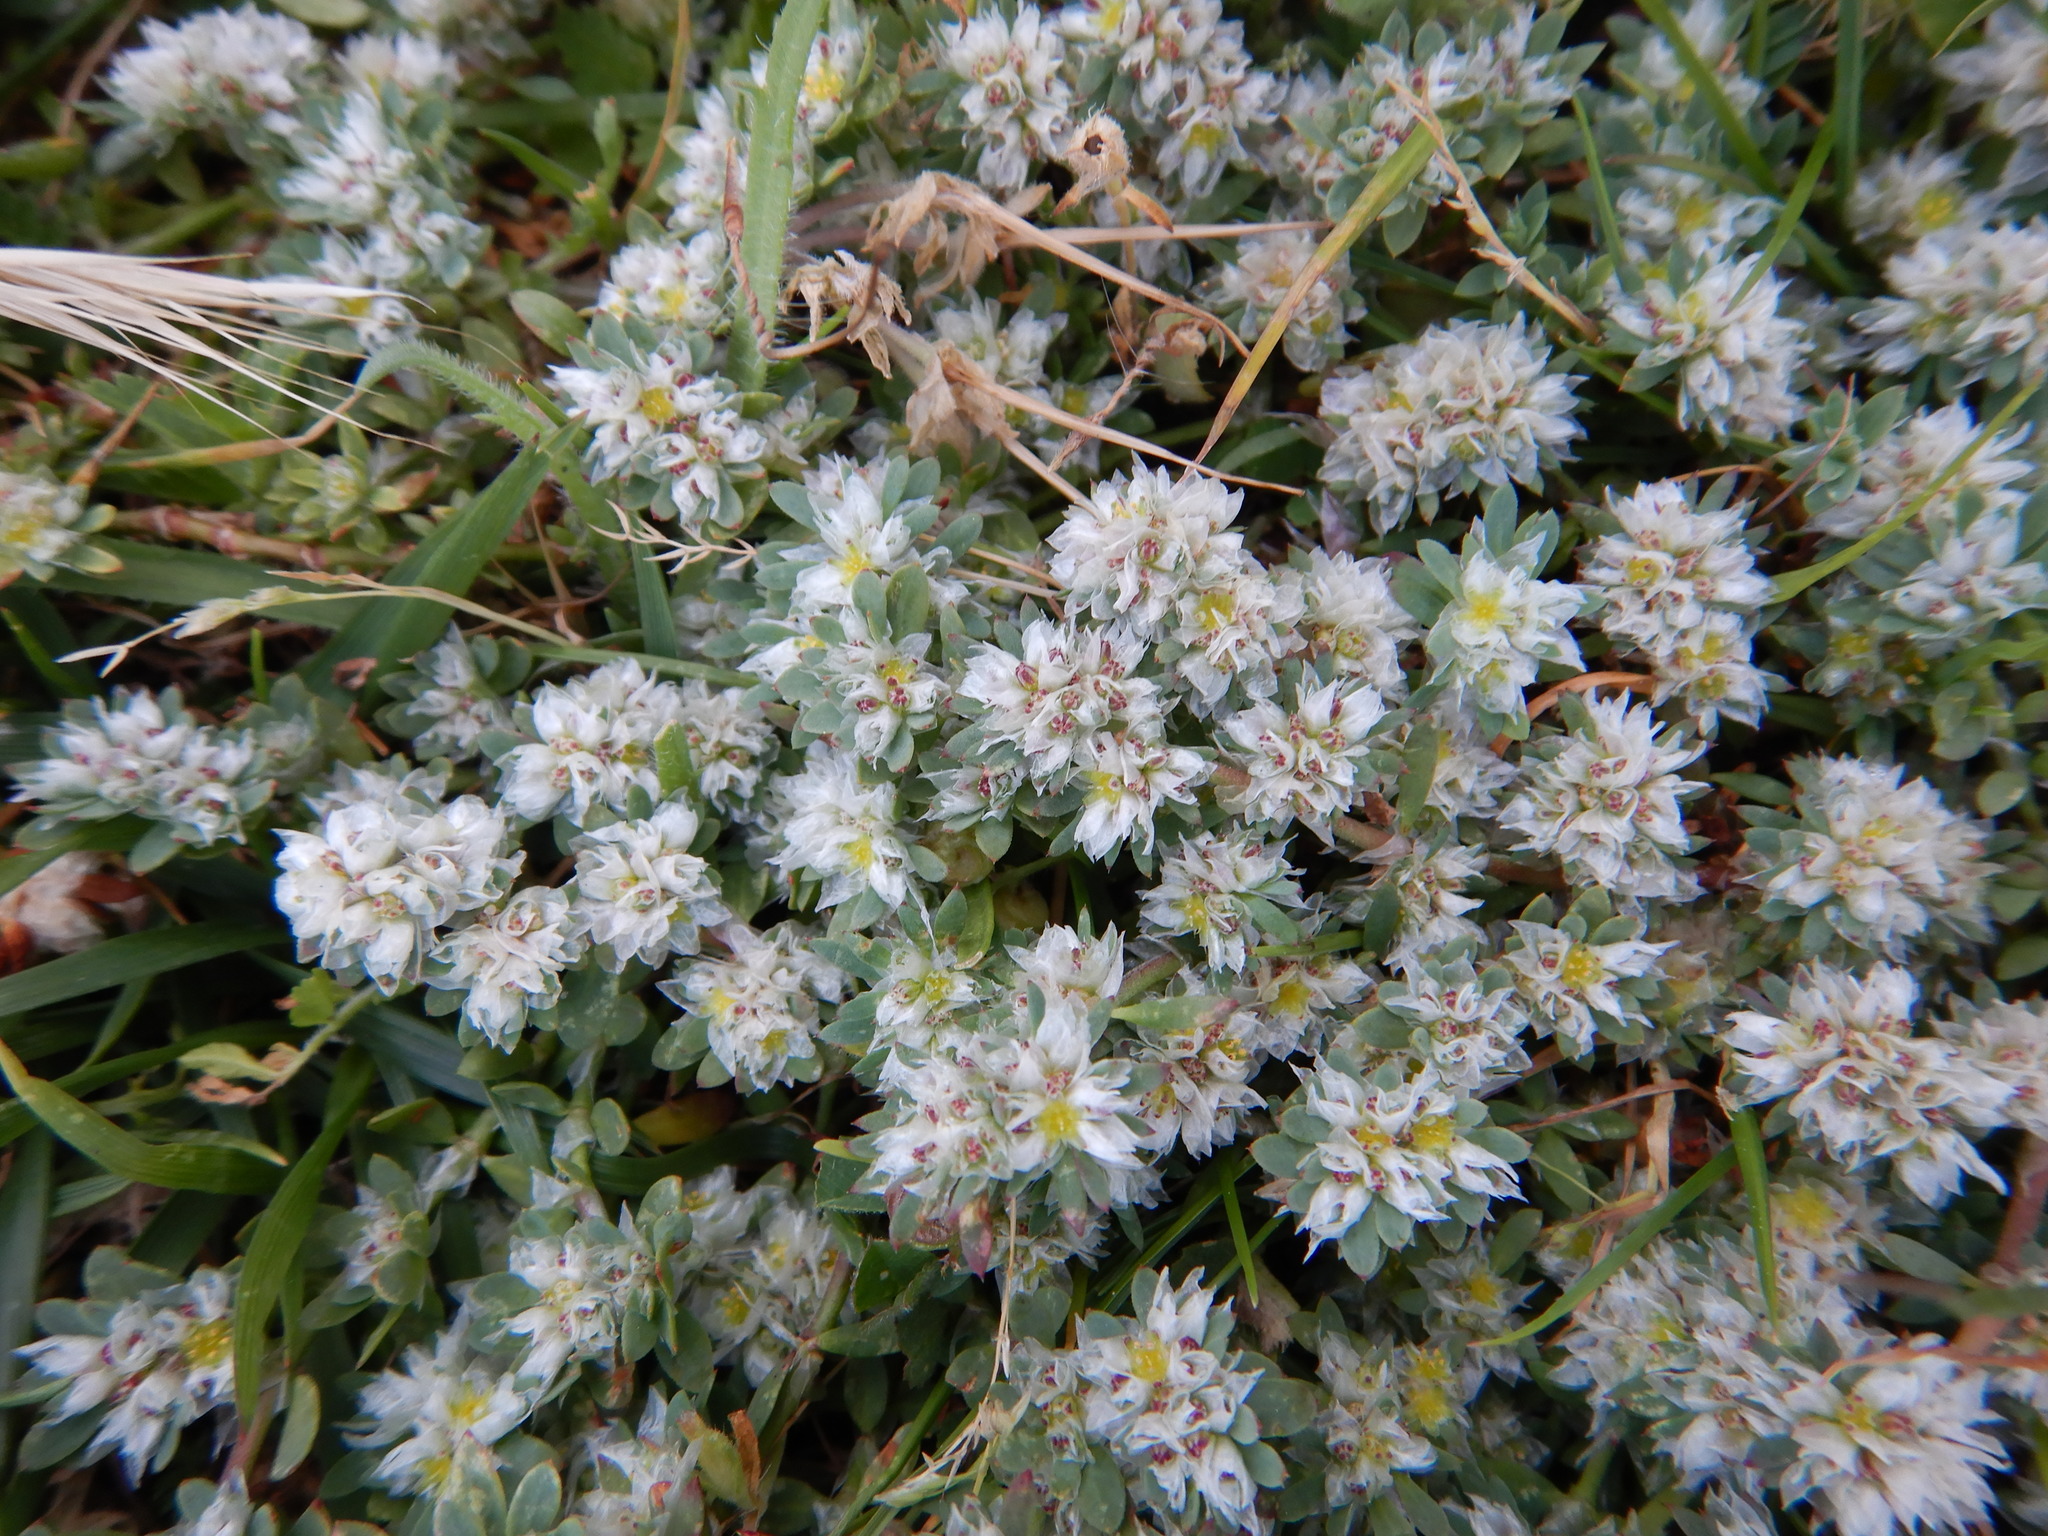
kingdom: Plantae
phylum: Tracheophyta
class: Magnoliopsida
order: Caryophyllales
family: Caryophyllaceae
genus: Paronychia
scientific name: Paronychia argentea
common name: Silver nailroot
